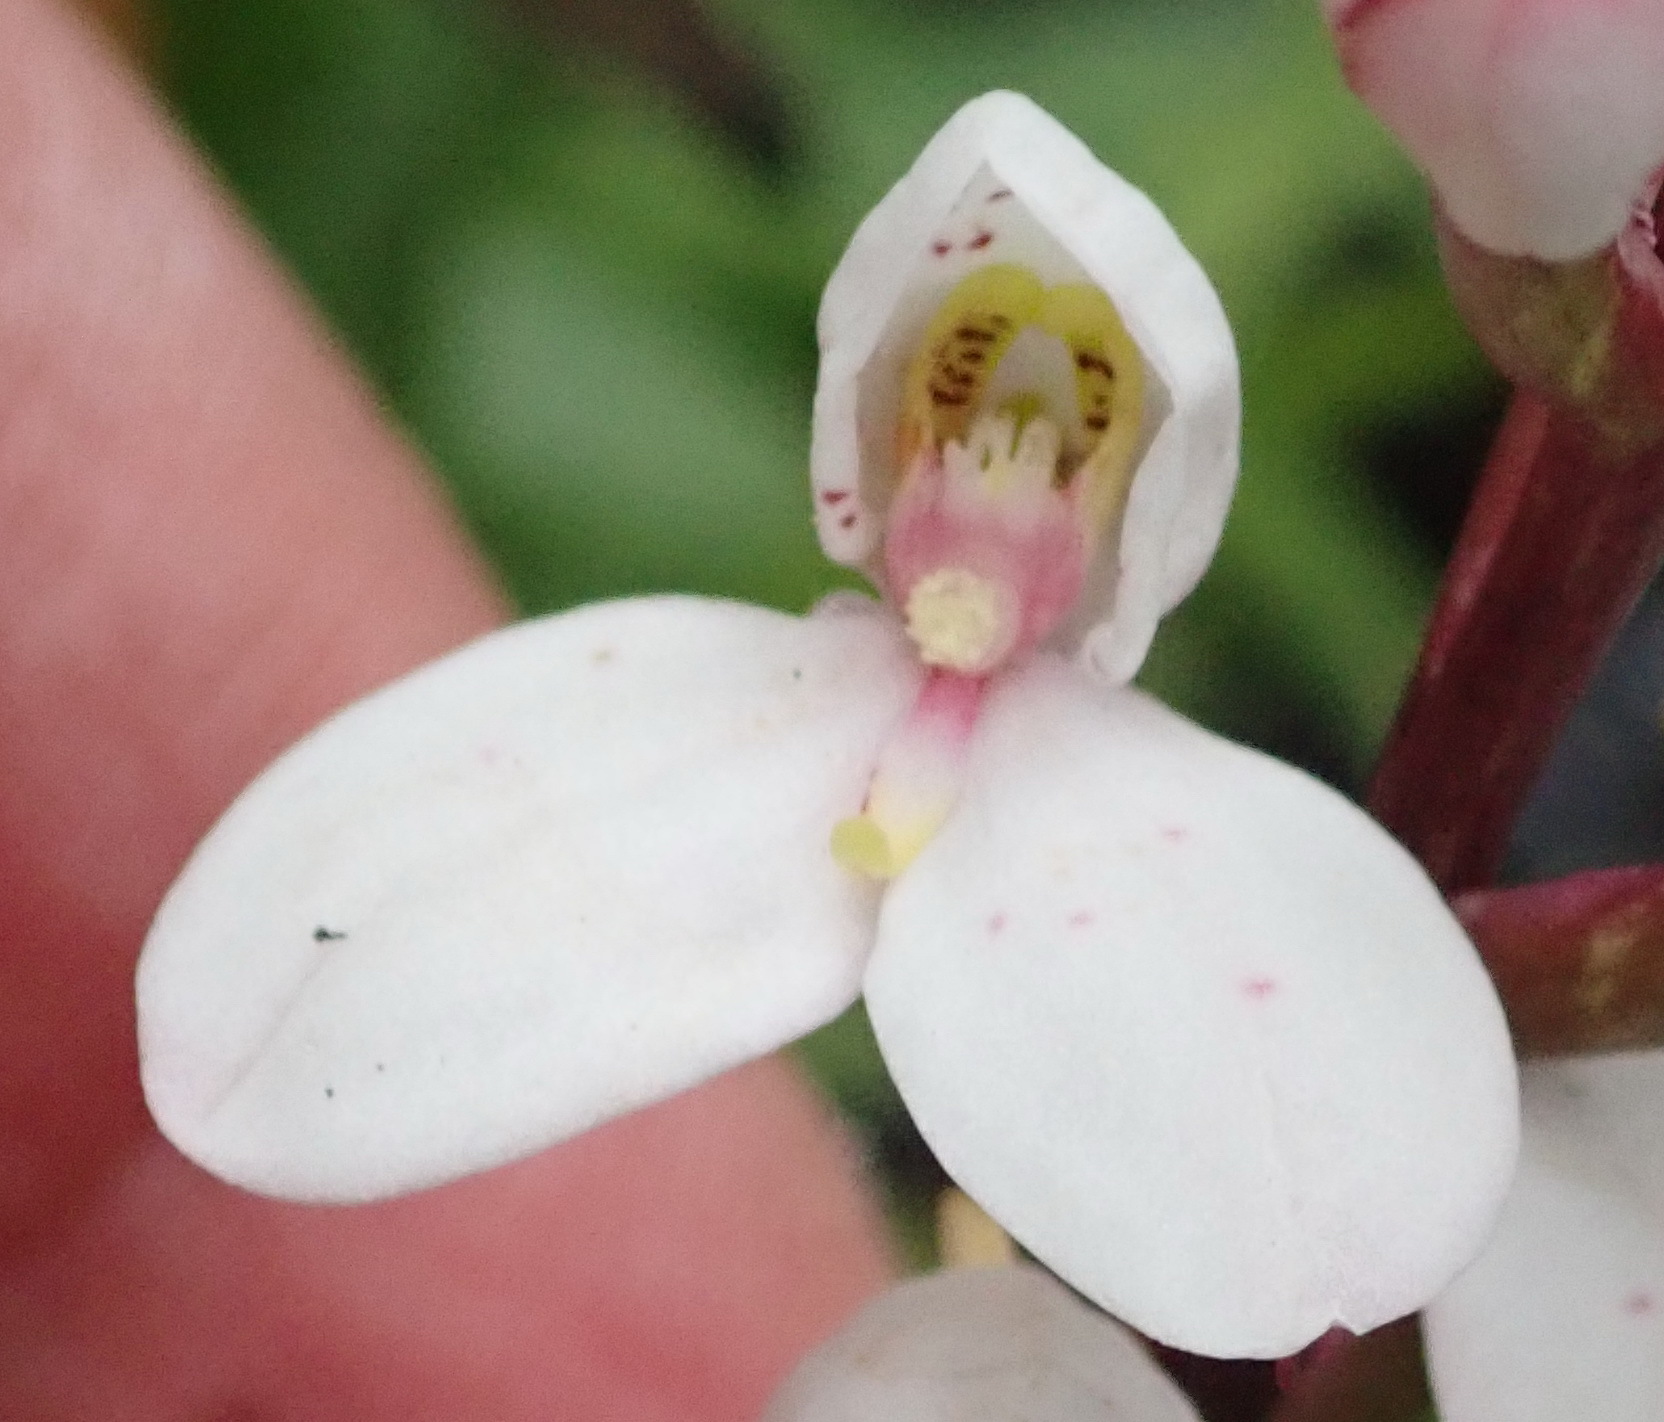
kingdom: Plantae
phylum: Tracheophyta
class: Liliopsida
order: Asparagales
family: Orchidaceae
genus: Disa
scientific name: Disa tripetaloides
